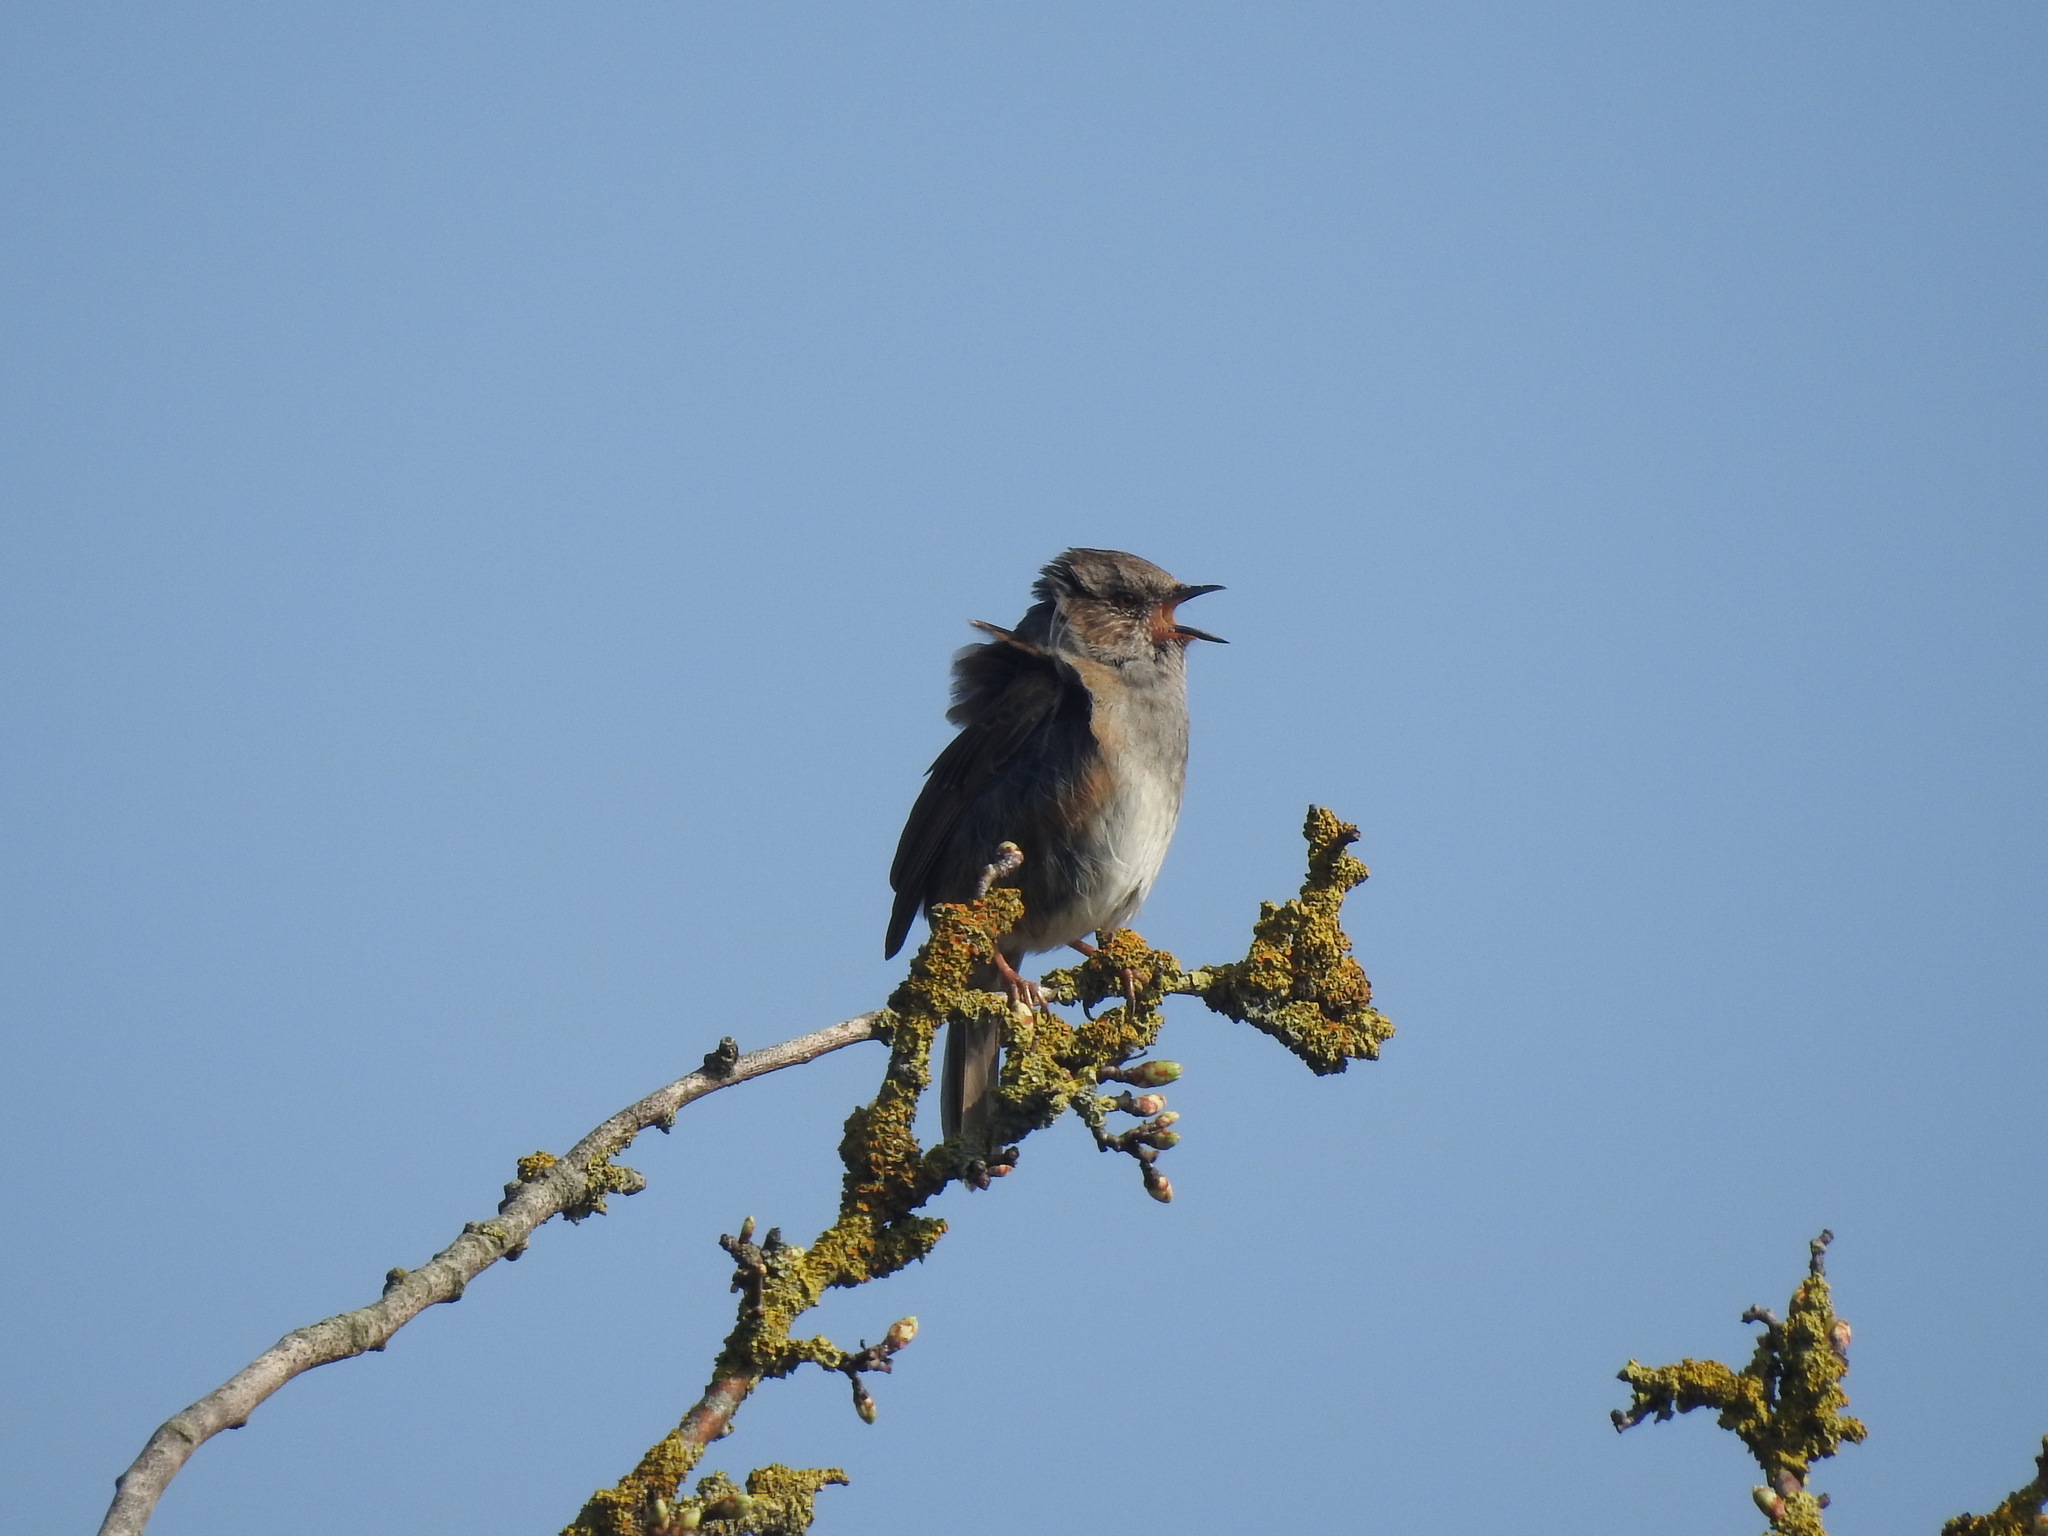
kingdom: Animalia
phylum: Chordata
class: Aves
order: Passeriformes
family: Prunellidae
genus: Prunella
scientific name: Prunella modularis
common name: Dunnock
